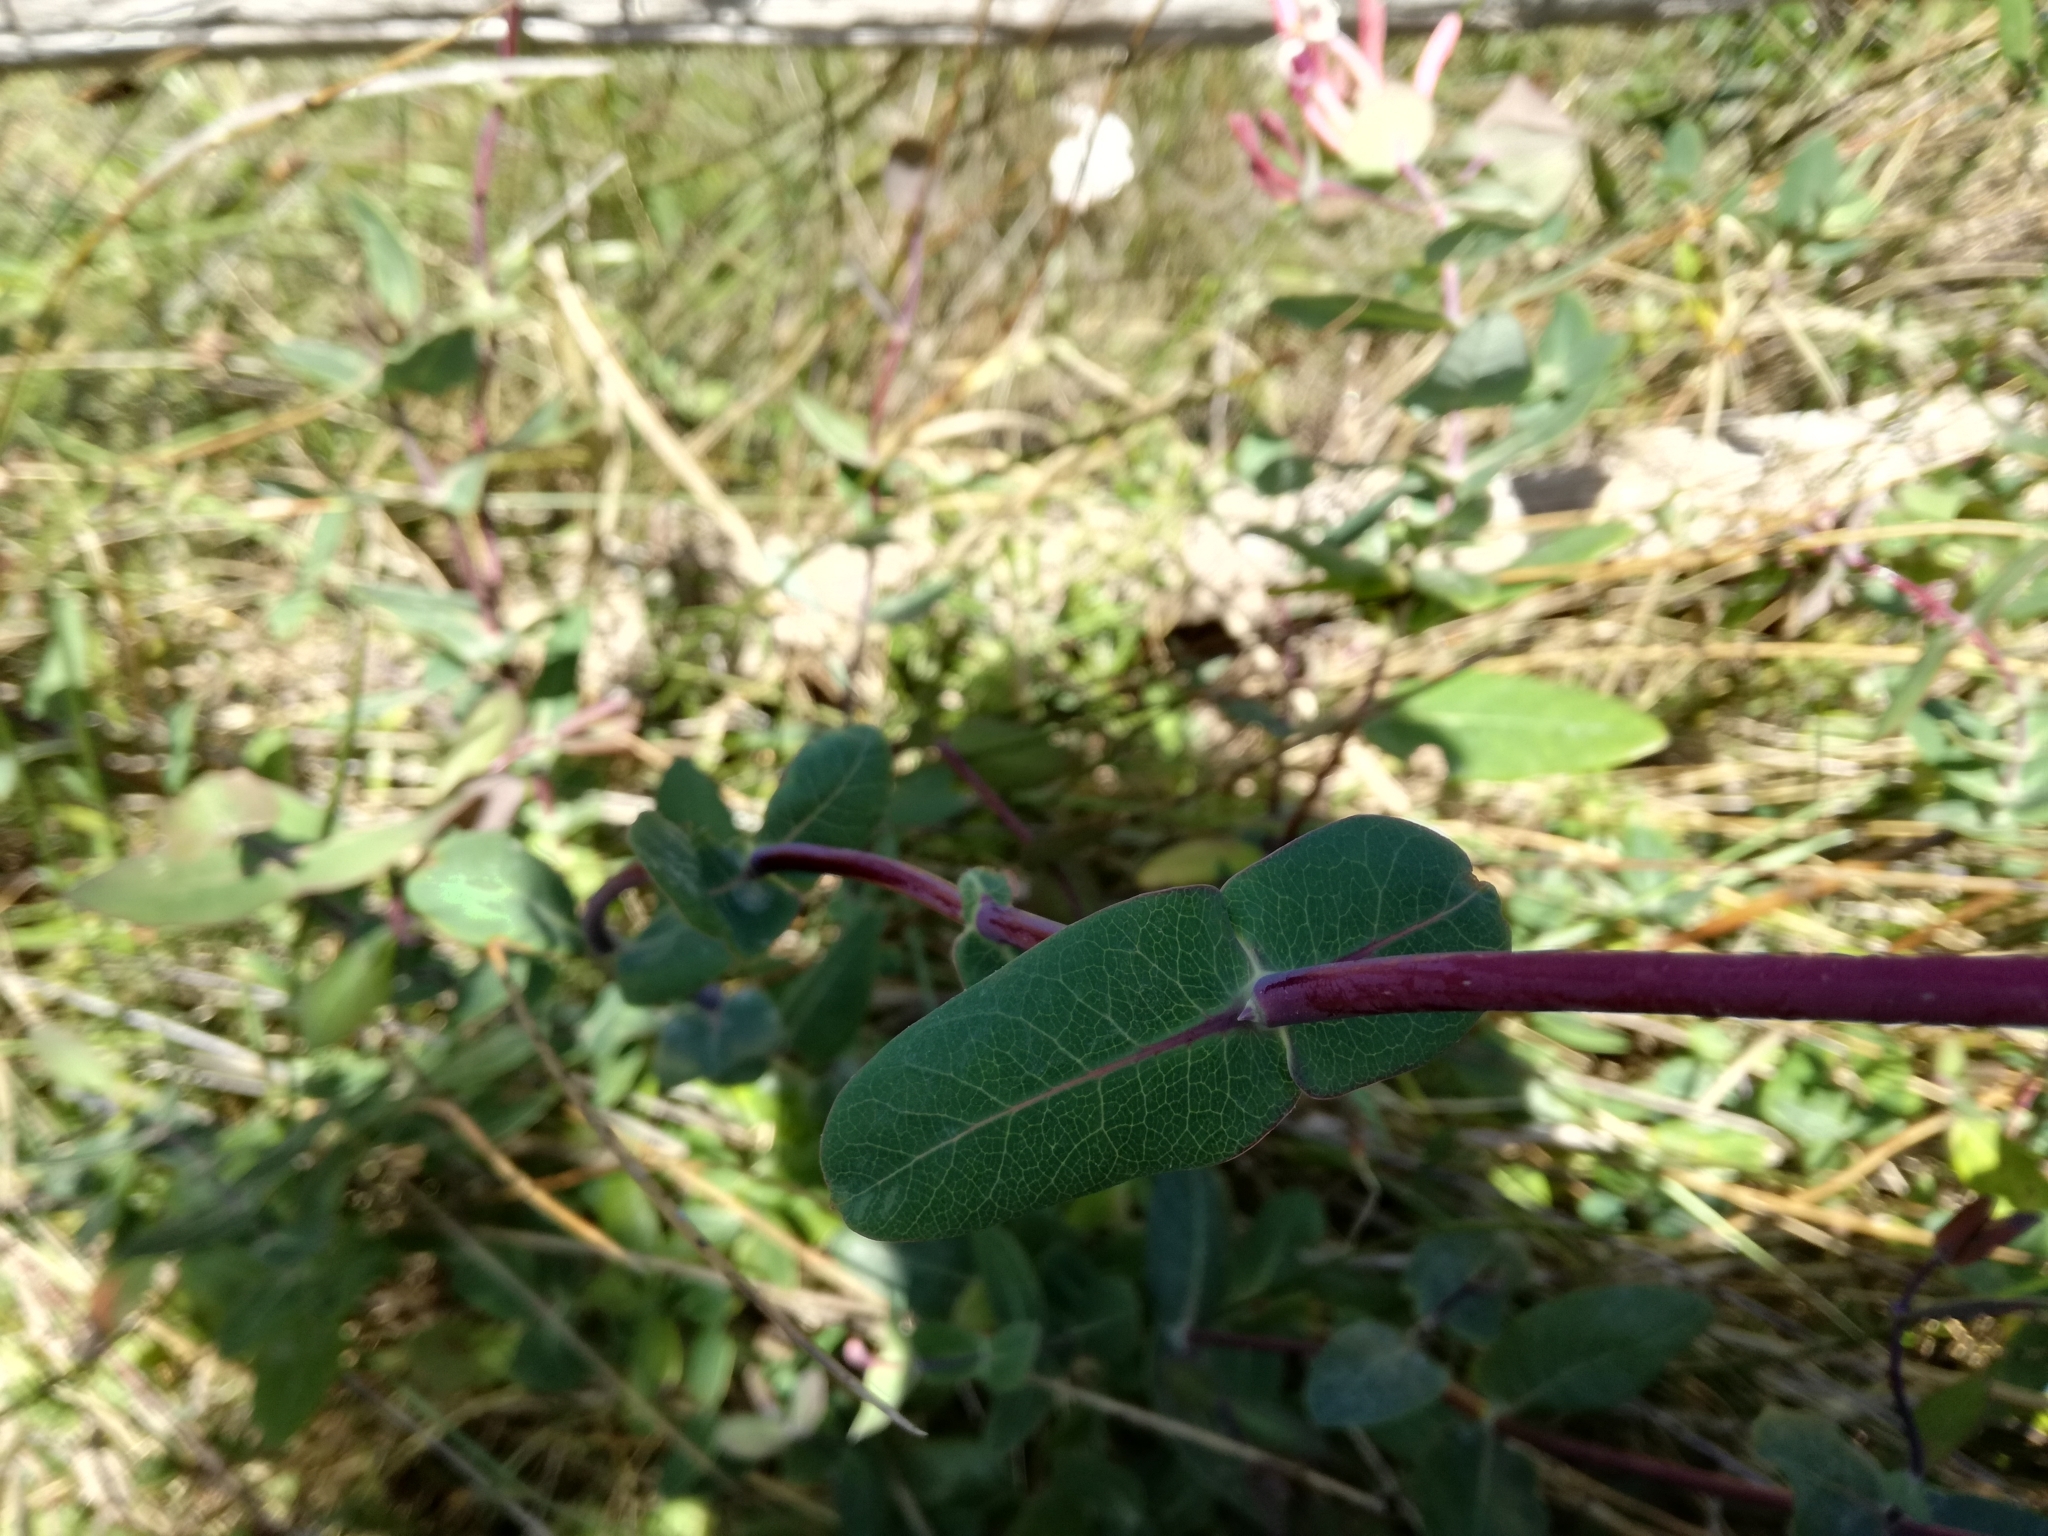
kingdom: Plantae
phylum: Tracheophyta
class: Magnoliopsida
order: Dipsacales
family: Caprifoliaceae
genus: Lonicera
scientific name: Lonicera implexa
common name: Minorca honeysuckle
